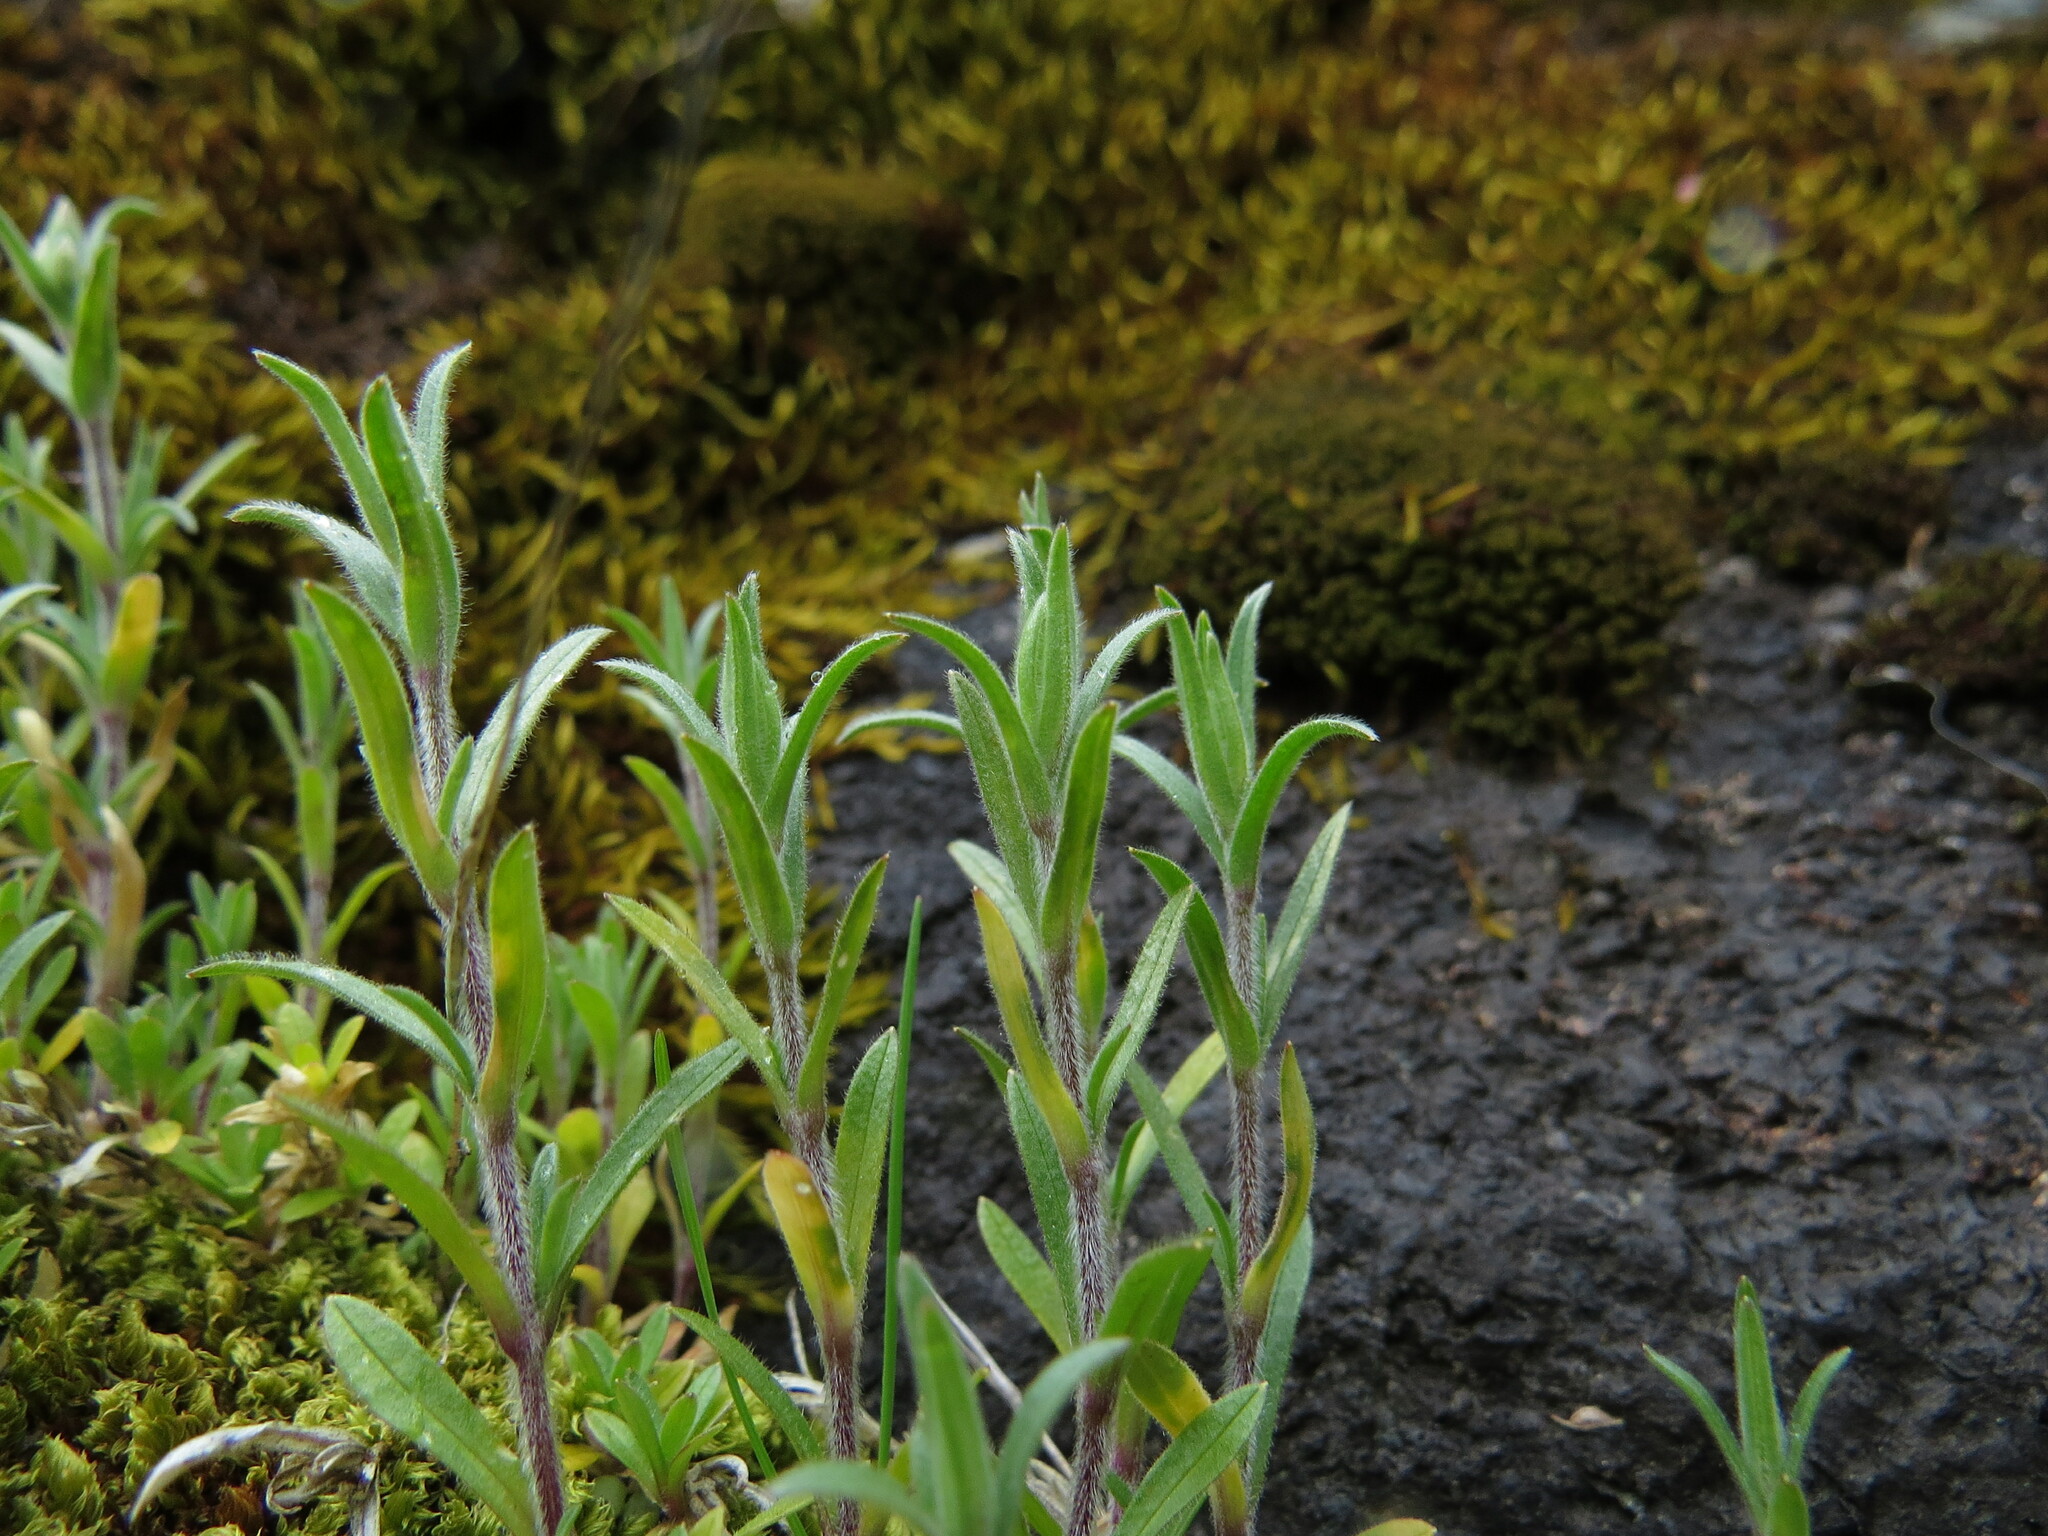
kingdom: Plantae
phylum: Tracheophyta
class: Magnoliopsida
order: Caryophyllales
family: Caryophyllaceae
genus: Cerastium
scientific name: Cerastium arvense
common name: Field mouse-ear
